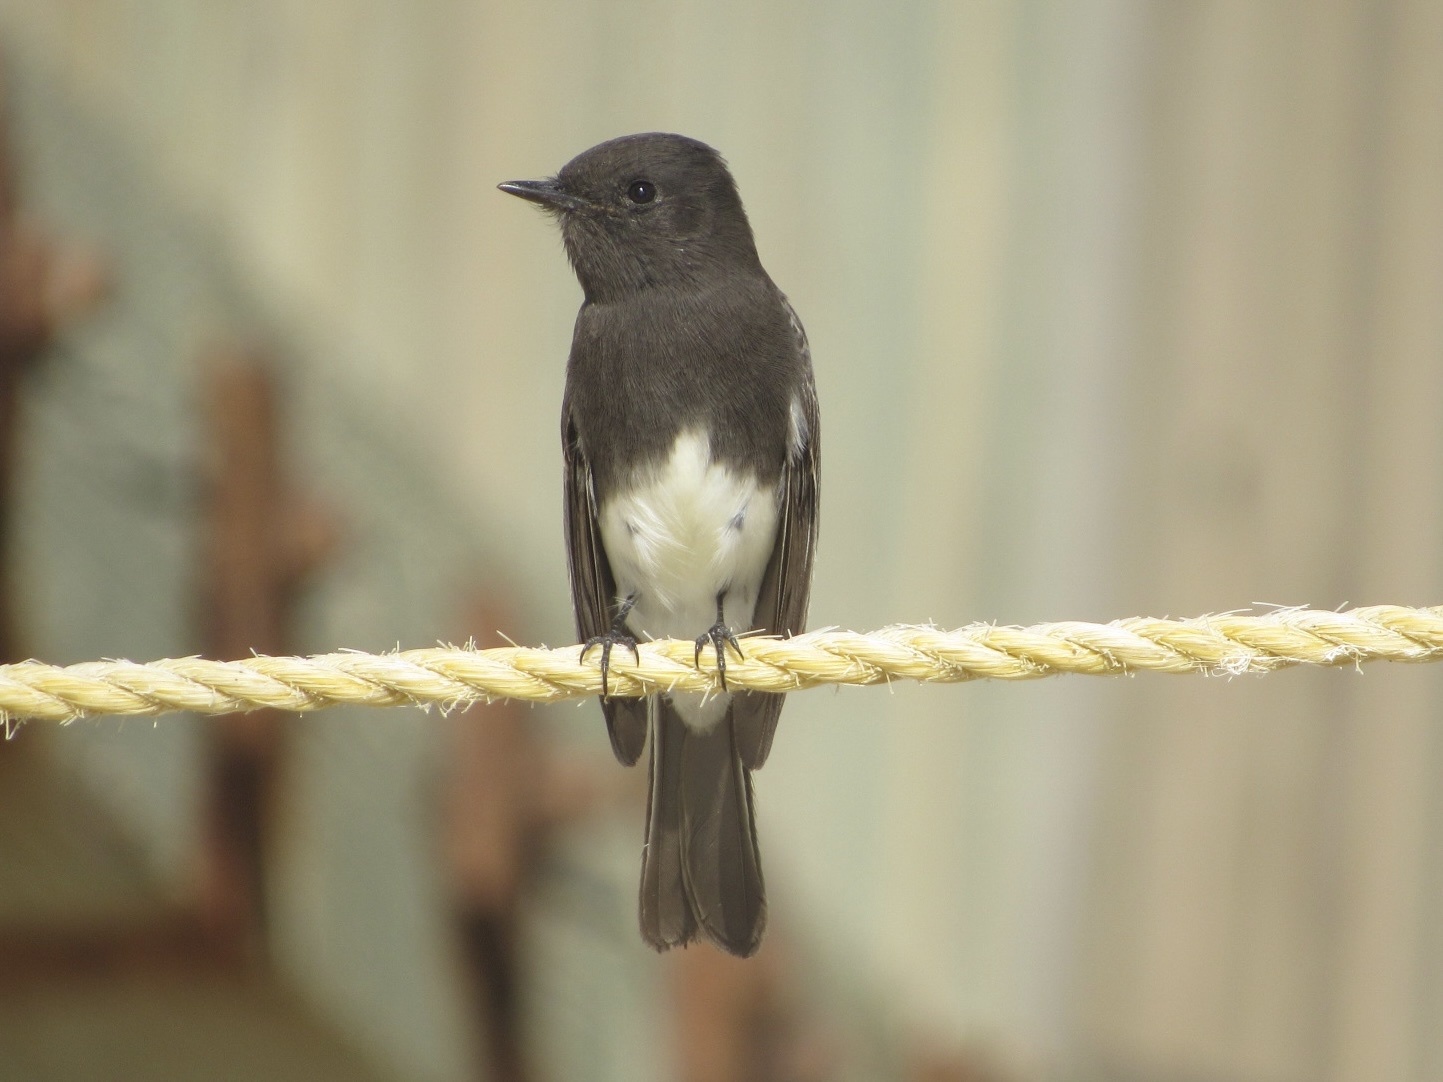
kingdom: Animalia
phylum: Chordata
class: Aves
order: Passeriformes
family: Tyrannidae
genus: Sayornis
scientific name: Sayornis nigricans
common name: Black phoebe
